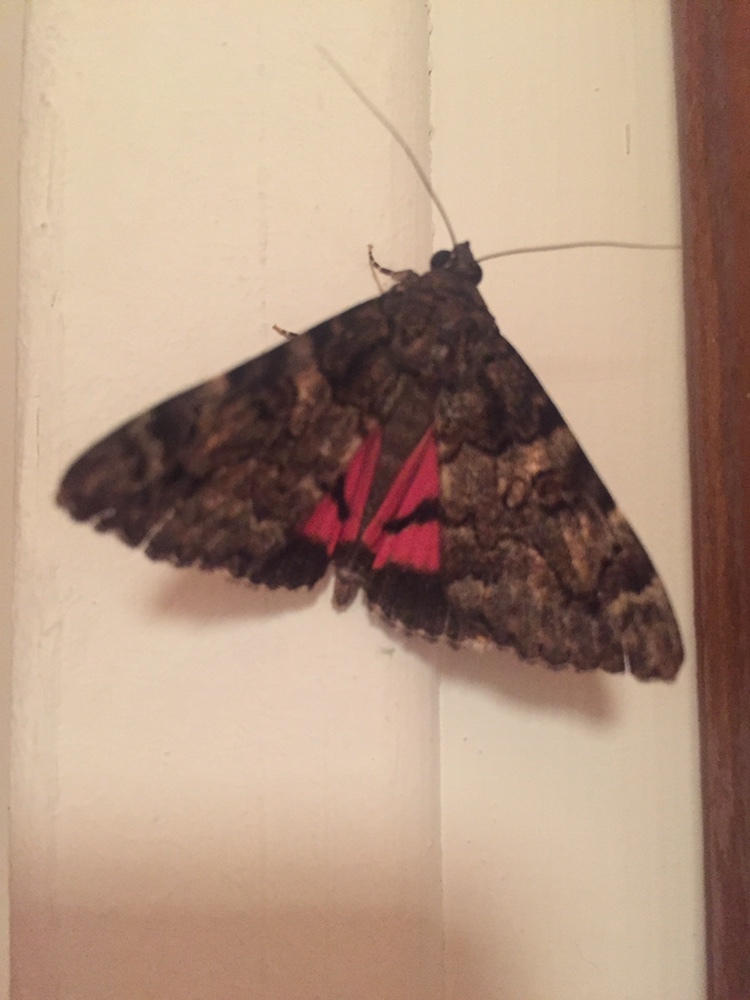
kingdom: Animalia
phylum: Arthropoda
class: Insecta
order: Lepidoptera
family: Erebidae
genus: Catocala
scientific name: Catocala coniuncta
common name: Minsmere crimson underwing
